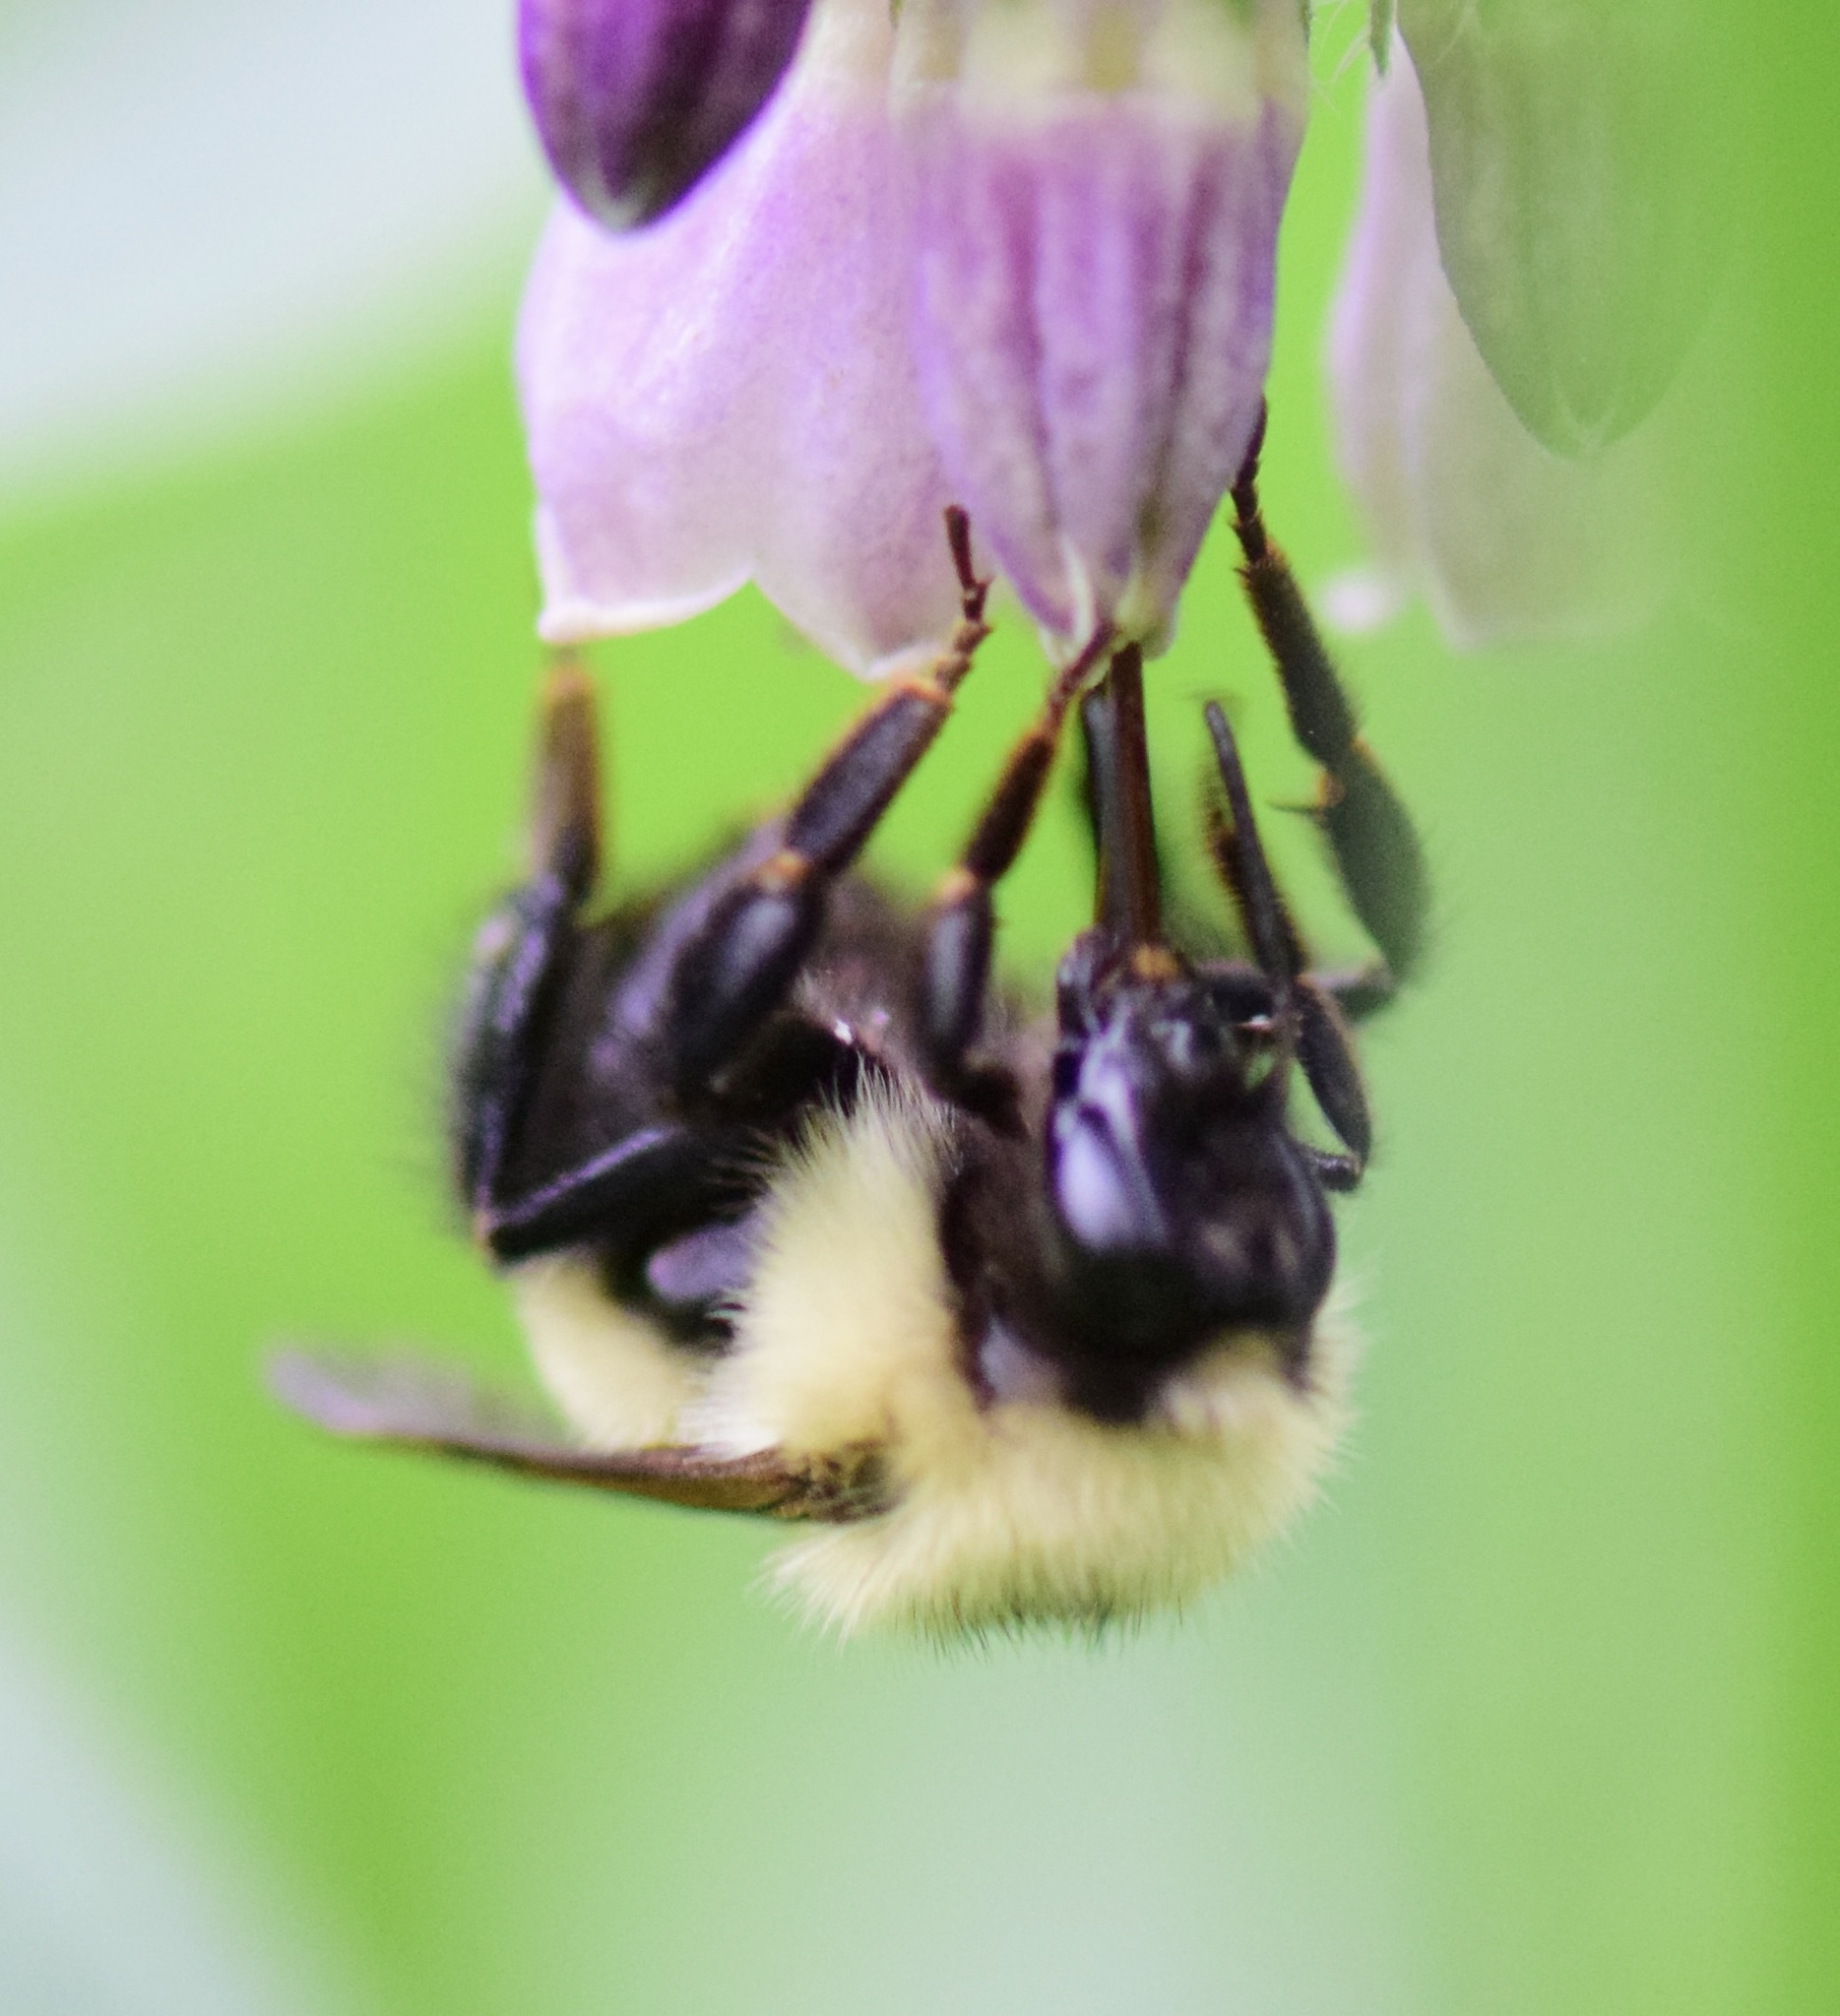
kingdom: Animalia
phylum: Arthropoda
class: Insecta
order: Hymenoptera
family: Apidae
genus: Bombus
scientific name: Bombus vagans
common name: Half-black bumble bee
